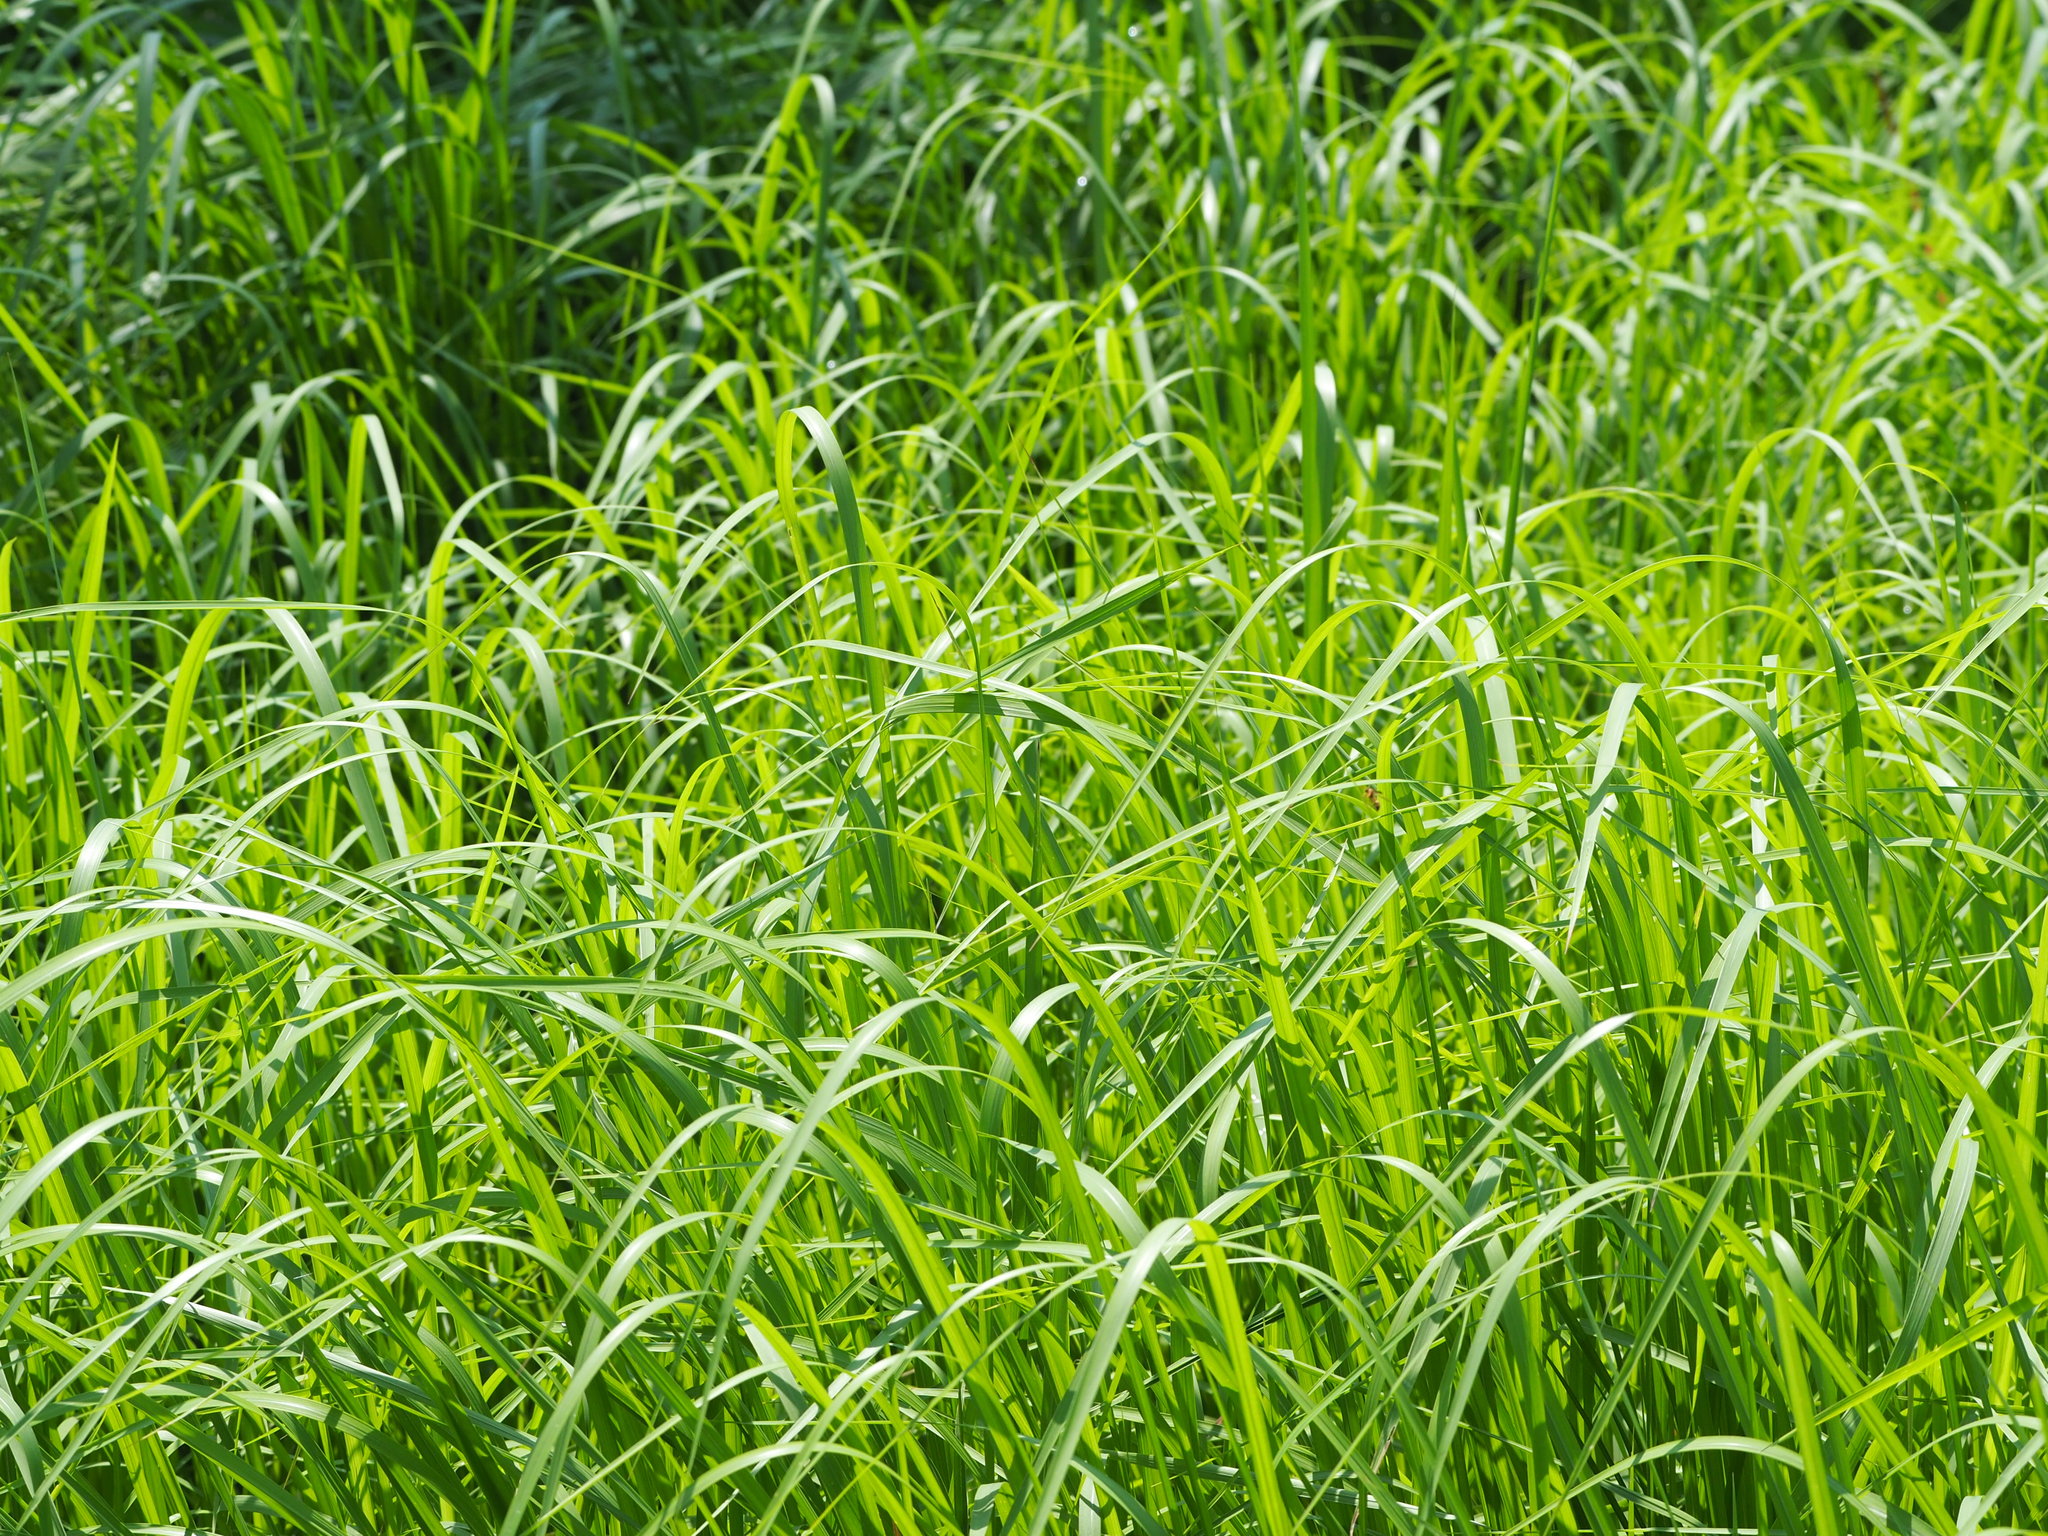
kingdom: Plantae
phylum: Tracheophyta
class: Liliopsida
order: Poales
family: Poaceae
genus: Imperata
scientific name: Imperata cylindrica
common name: Cogongrass
